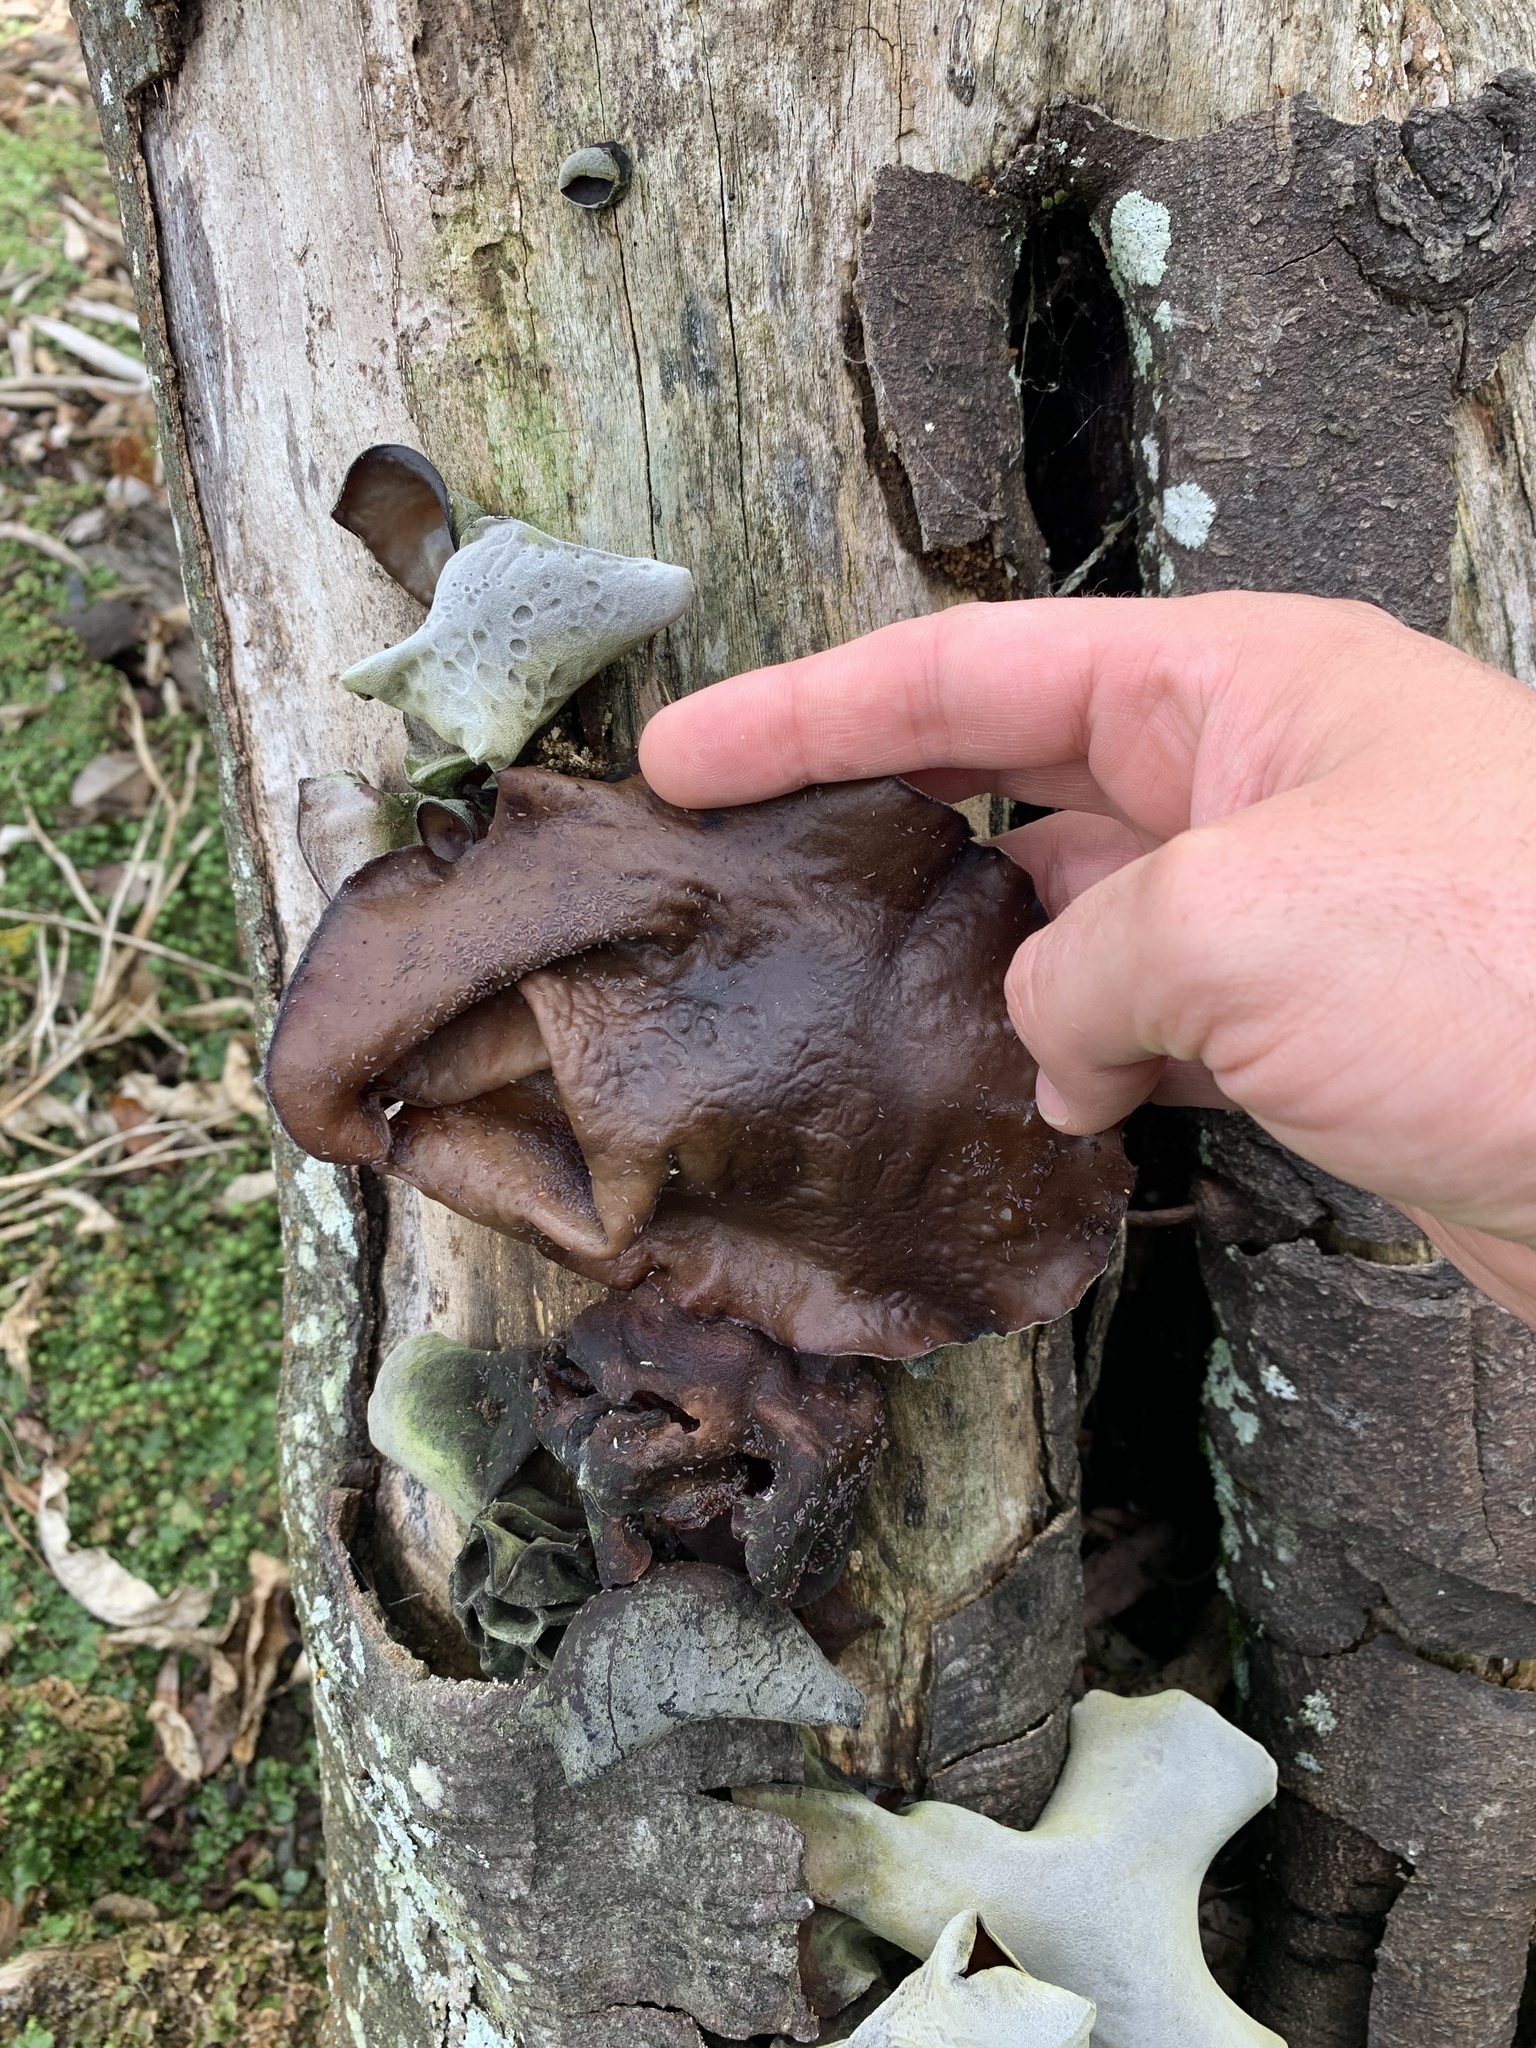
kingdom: Fungi
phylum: Basidiomycota
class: Agaricomycetes
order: Auriculariales
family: Auriculariaceae
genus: Auricularia
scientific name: Auricularia cornea
